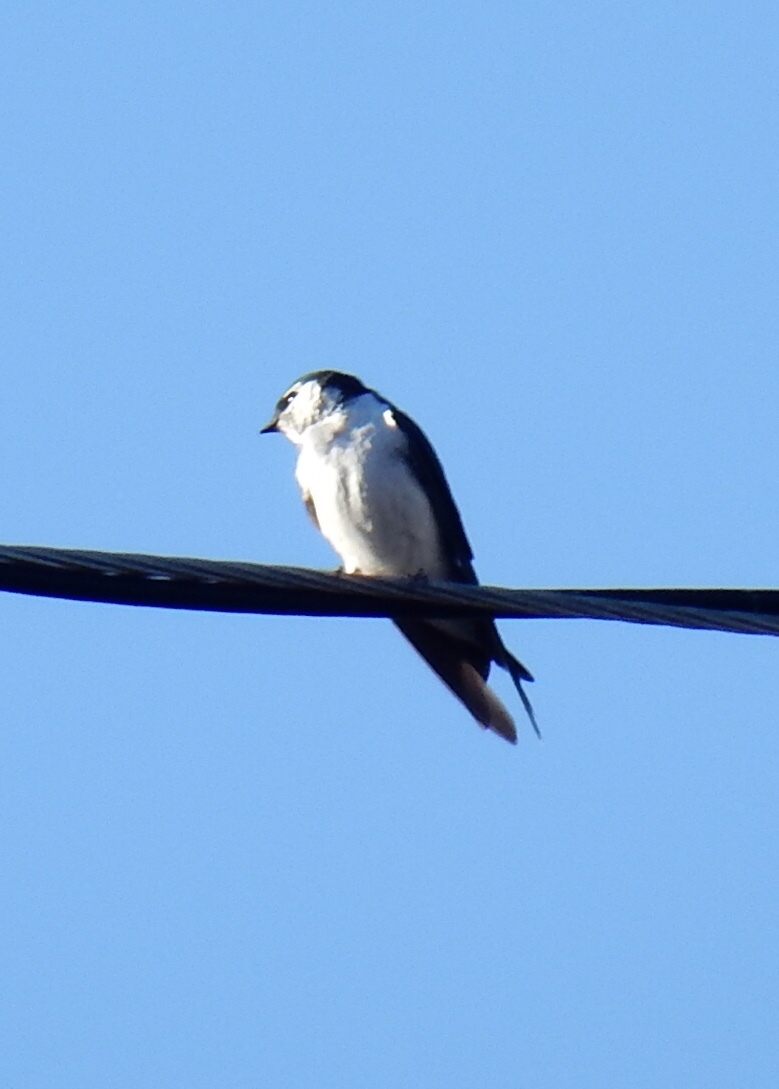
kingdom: Animalia
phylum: Chordata
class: Aves
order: Passeriformes
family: Hirundinidae
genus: Tachycineta
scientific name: Tachycineta thalassina
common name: Violet-green swallow
